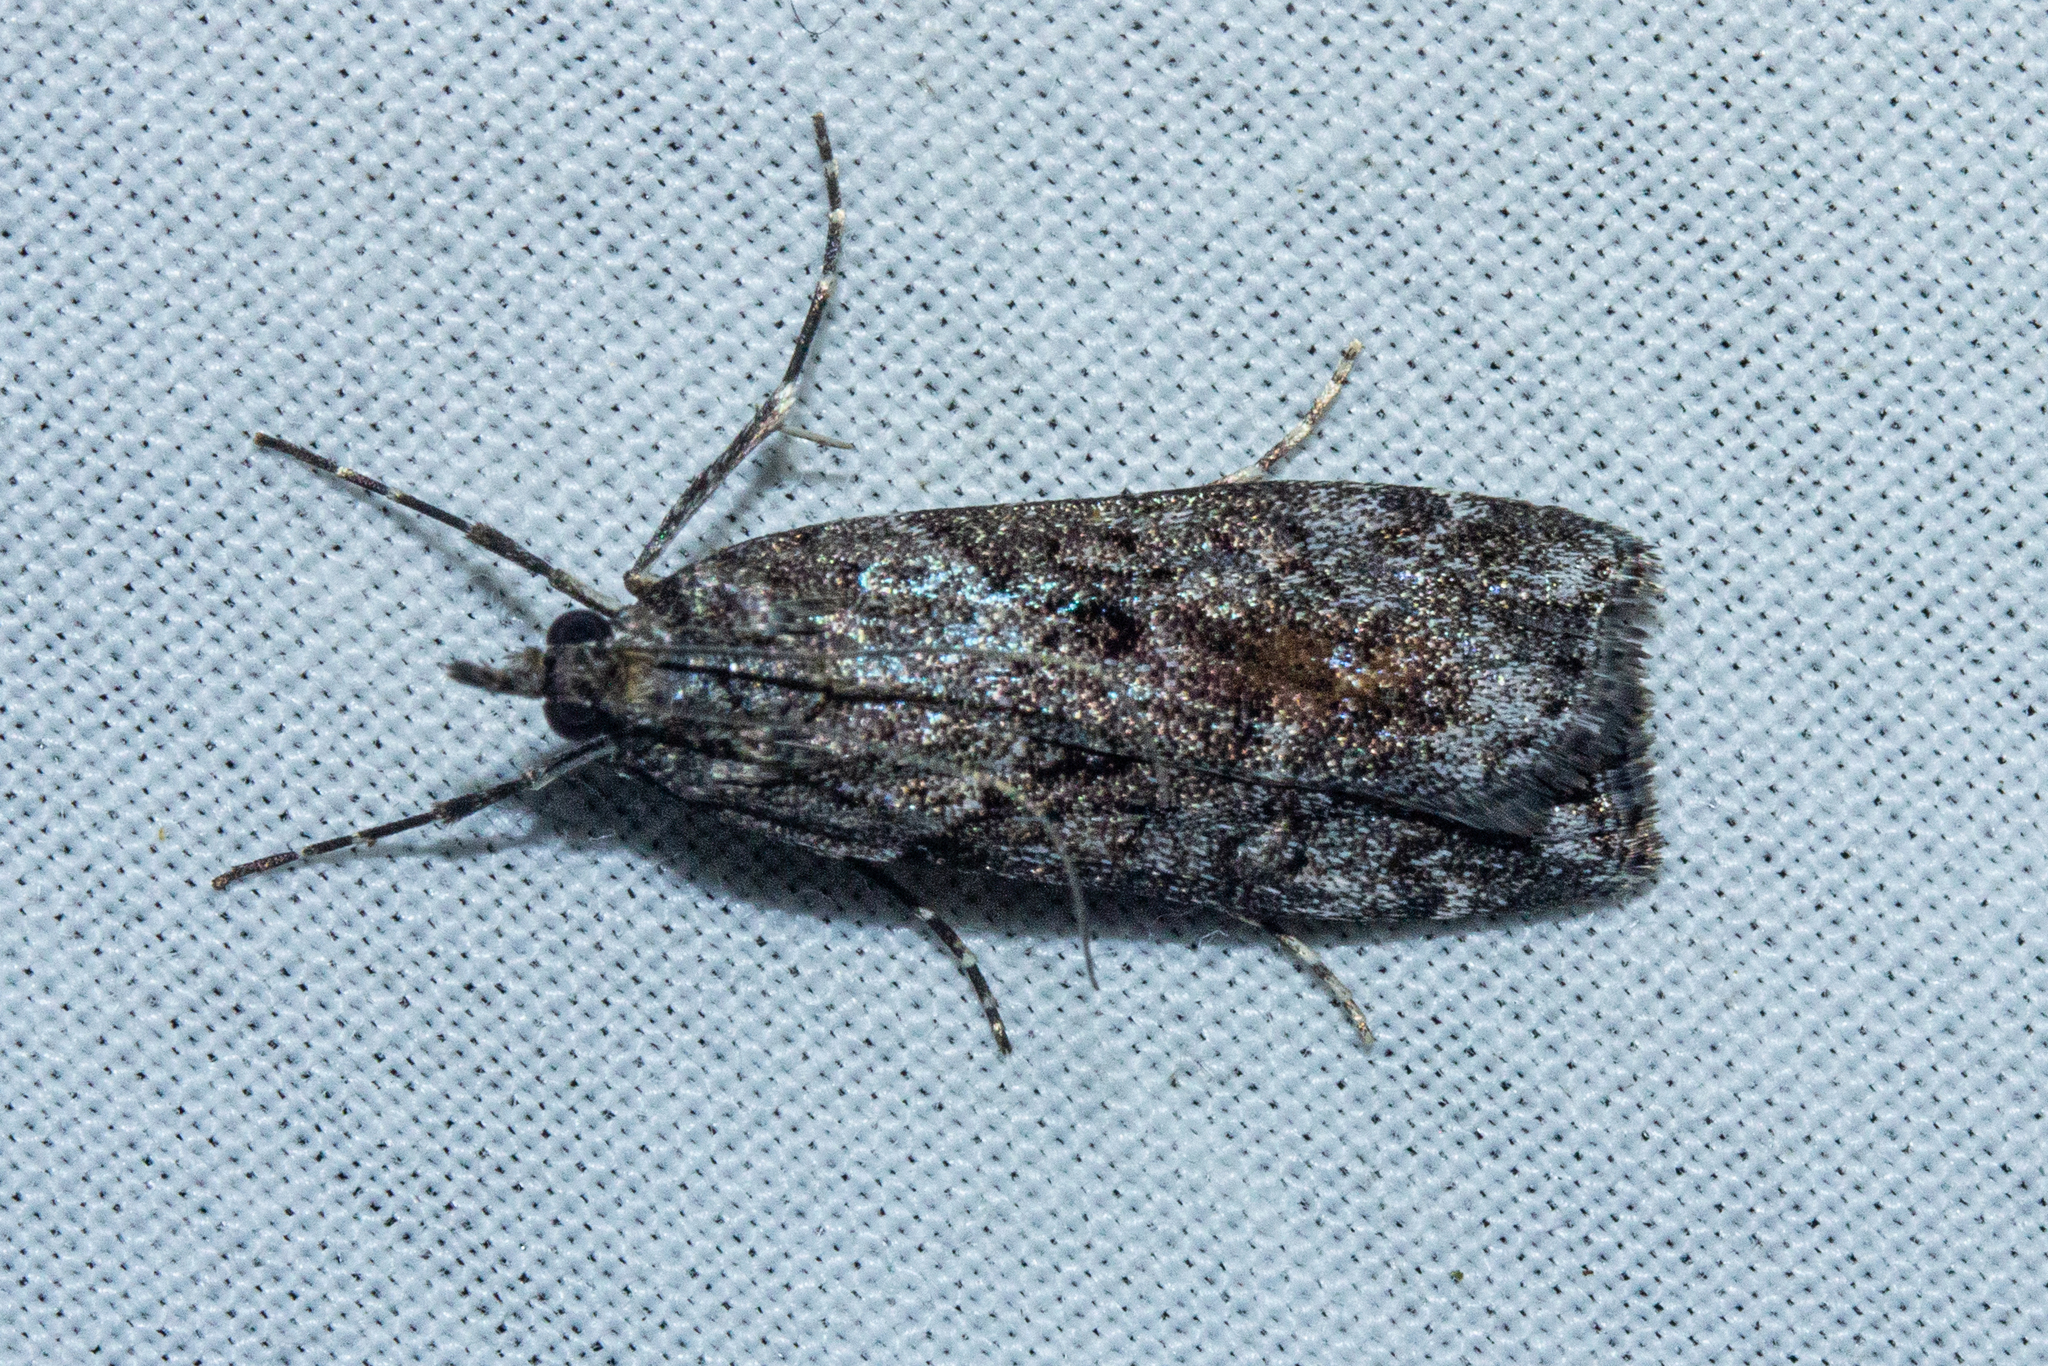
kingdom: Animalia
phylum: Arthropoda
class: Insecta
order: Lepidoptera
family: Crambidae
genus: Eudonia
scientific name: Eudonia submarginalis
